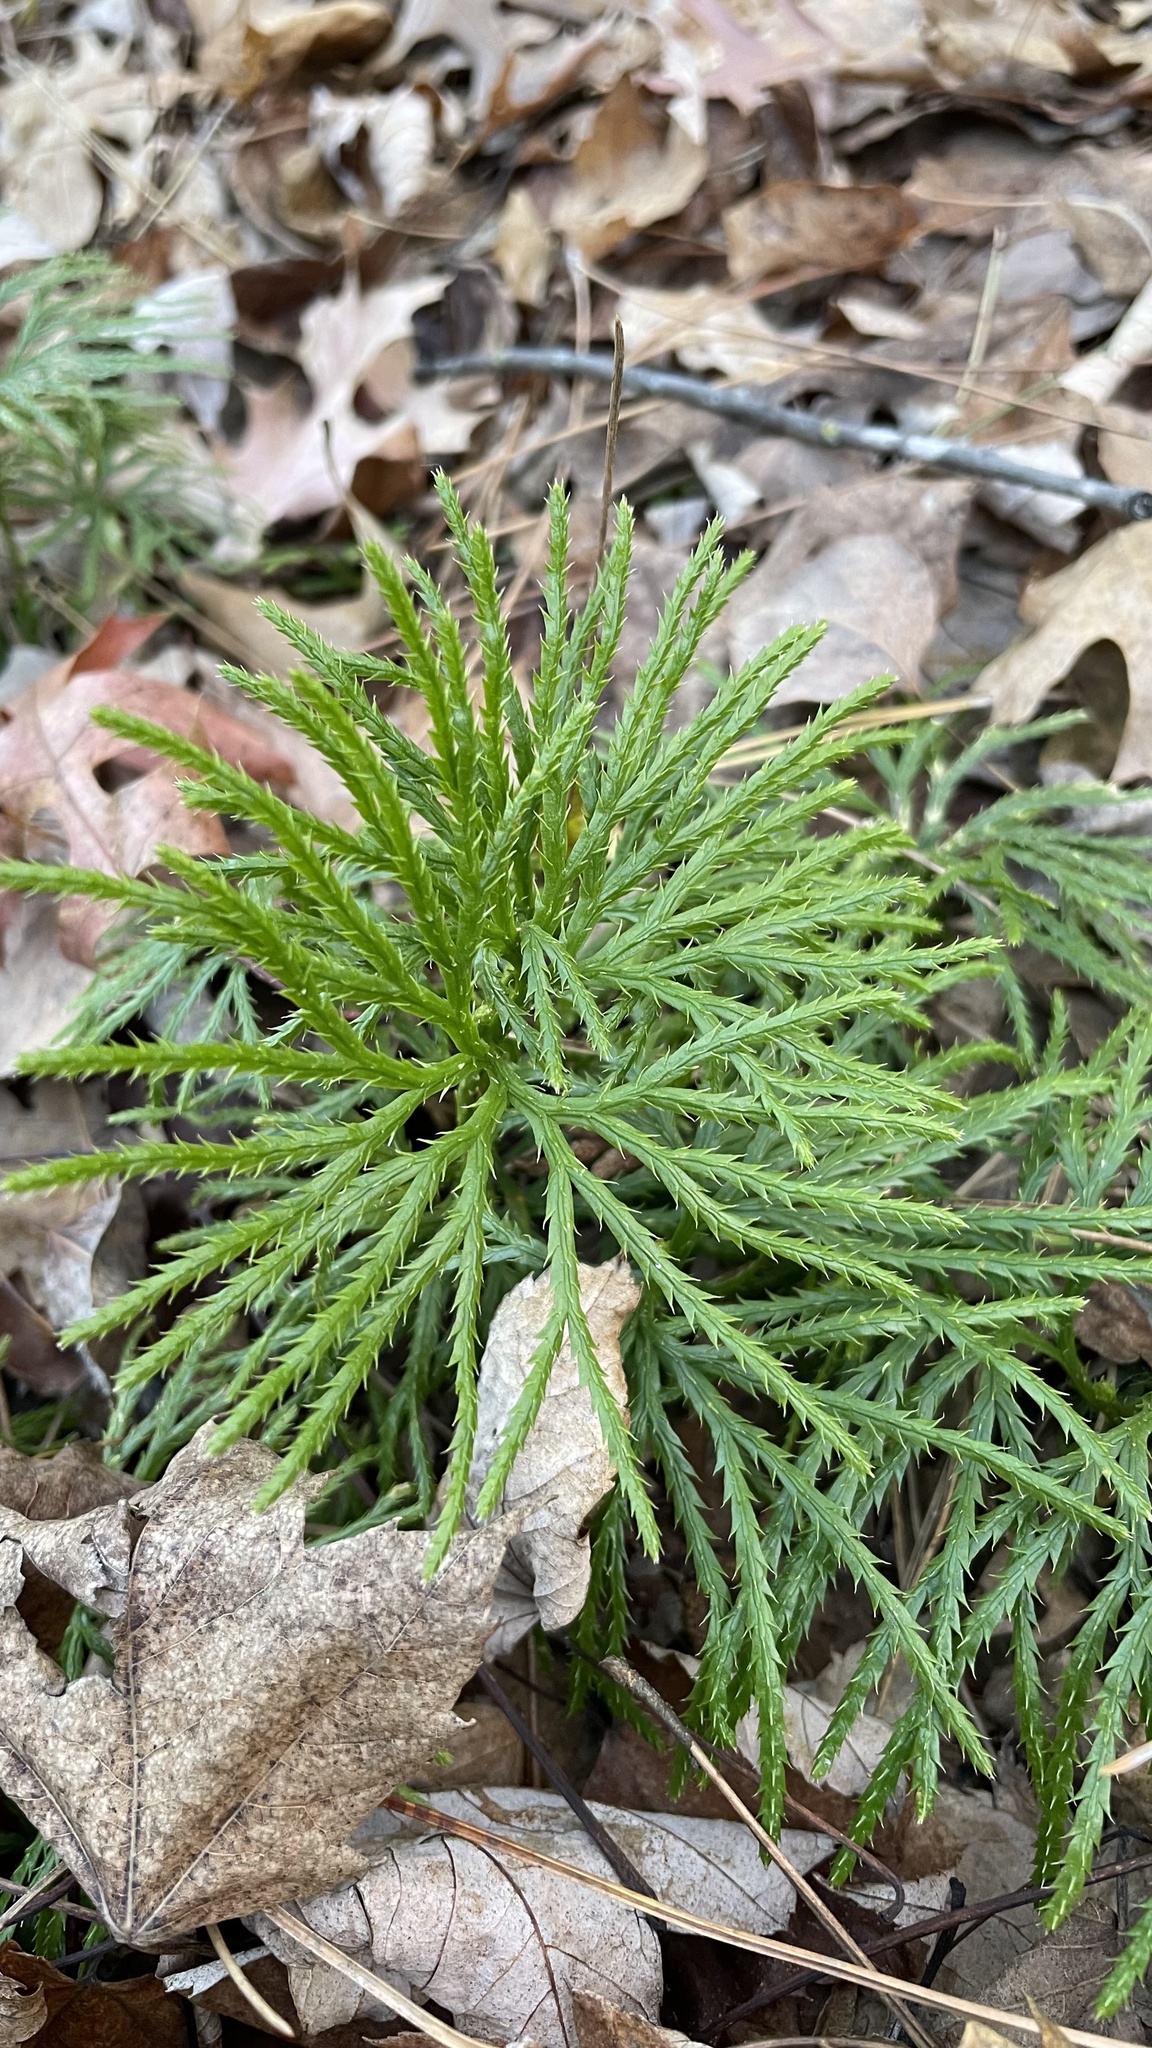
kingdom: Plantae
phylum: Tracheophyta
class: Lycopodiopsida
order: Lycopodiales
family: Lycopodiaceae
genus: Diphasiastrum
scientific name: Diphasiastrum digitatum
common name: Southern running-pine
